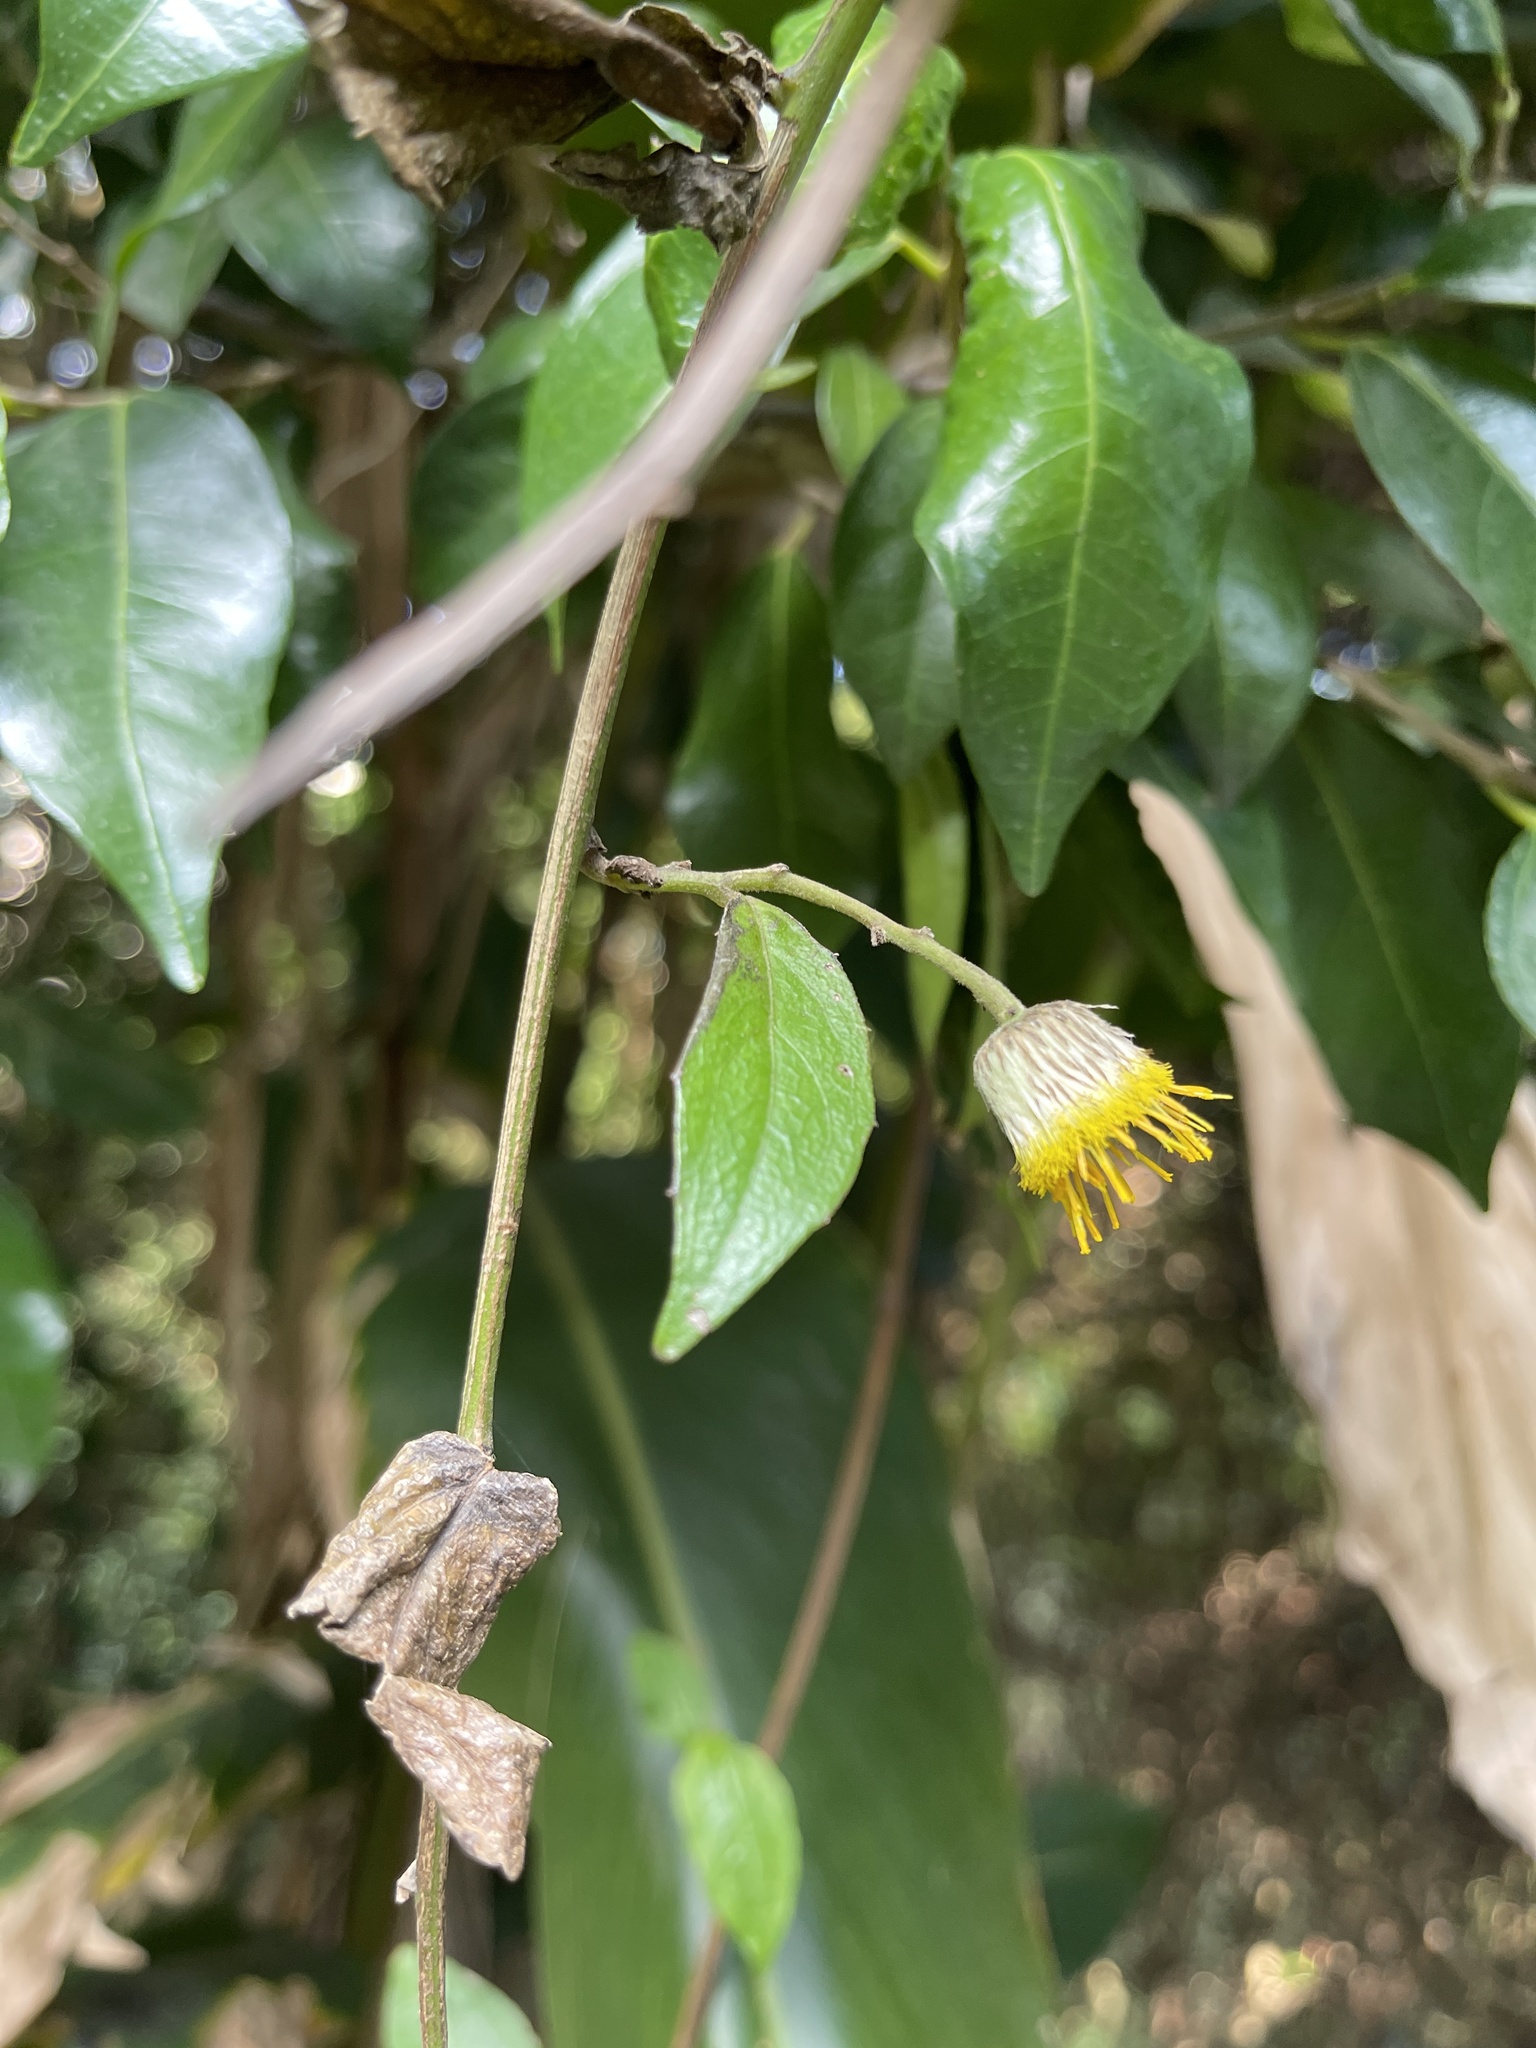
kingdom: Plantae
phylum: Tracheophyta
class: Magnoliopsida
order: Asterales
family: Asteraceae
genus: Blumea
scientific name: Blumea megacephala
